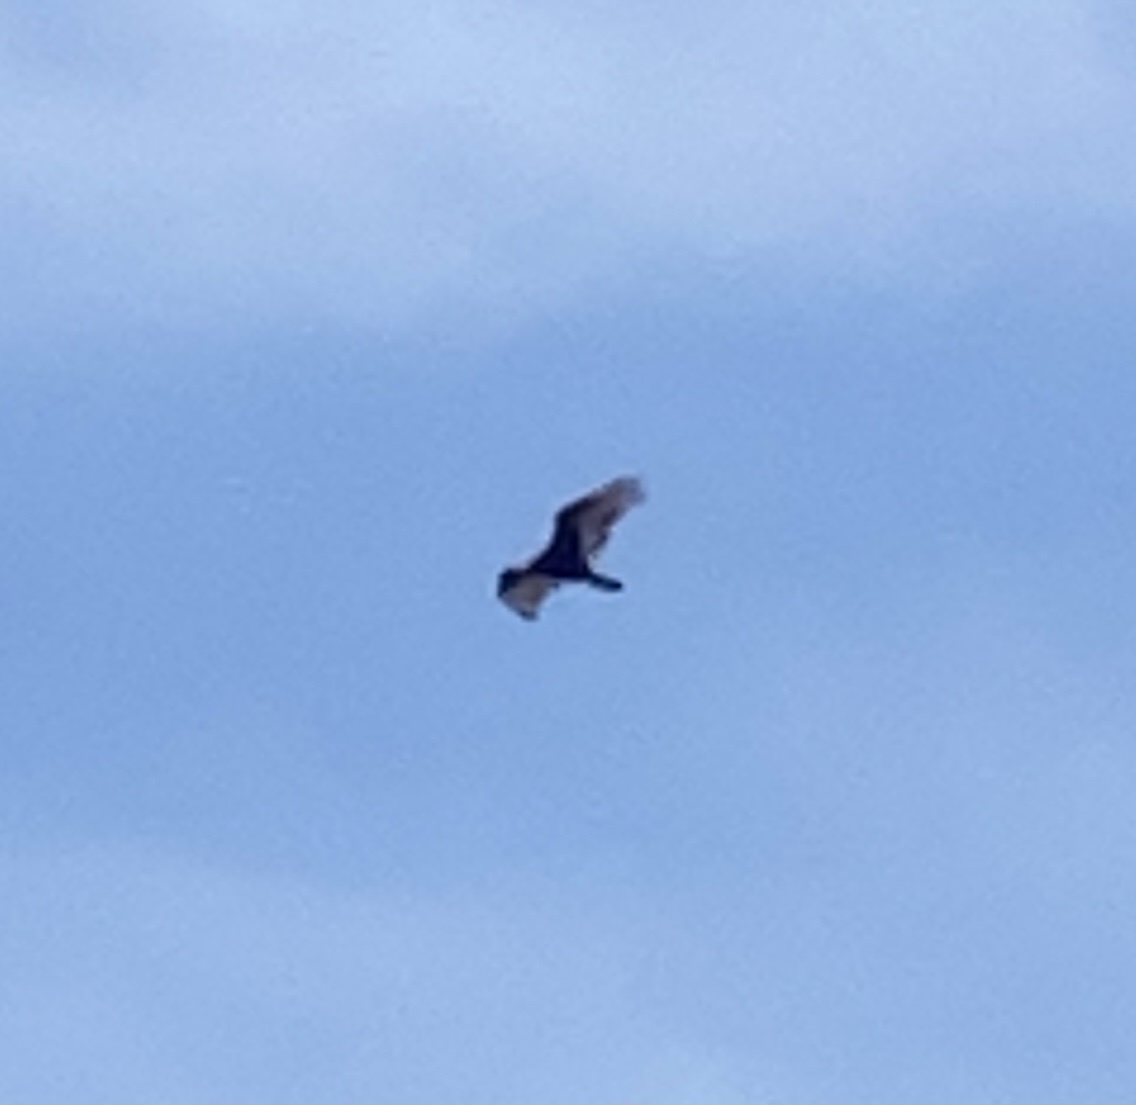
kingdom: Animalia
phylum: Chordata
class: Aves
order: Accipitriformes
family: Cathartidae
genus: Cathartes
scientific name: Cathartes aura
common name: Turkey vulture
